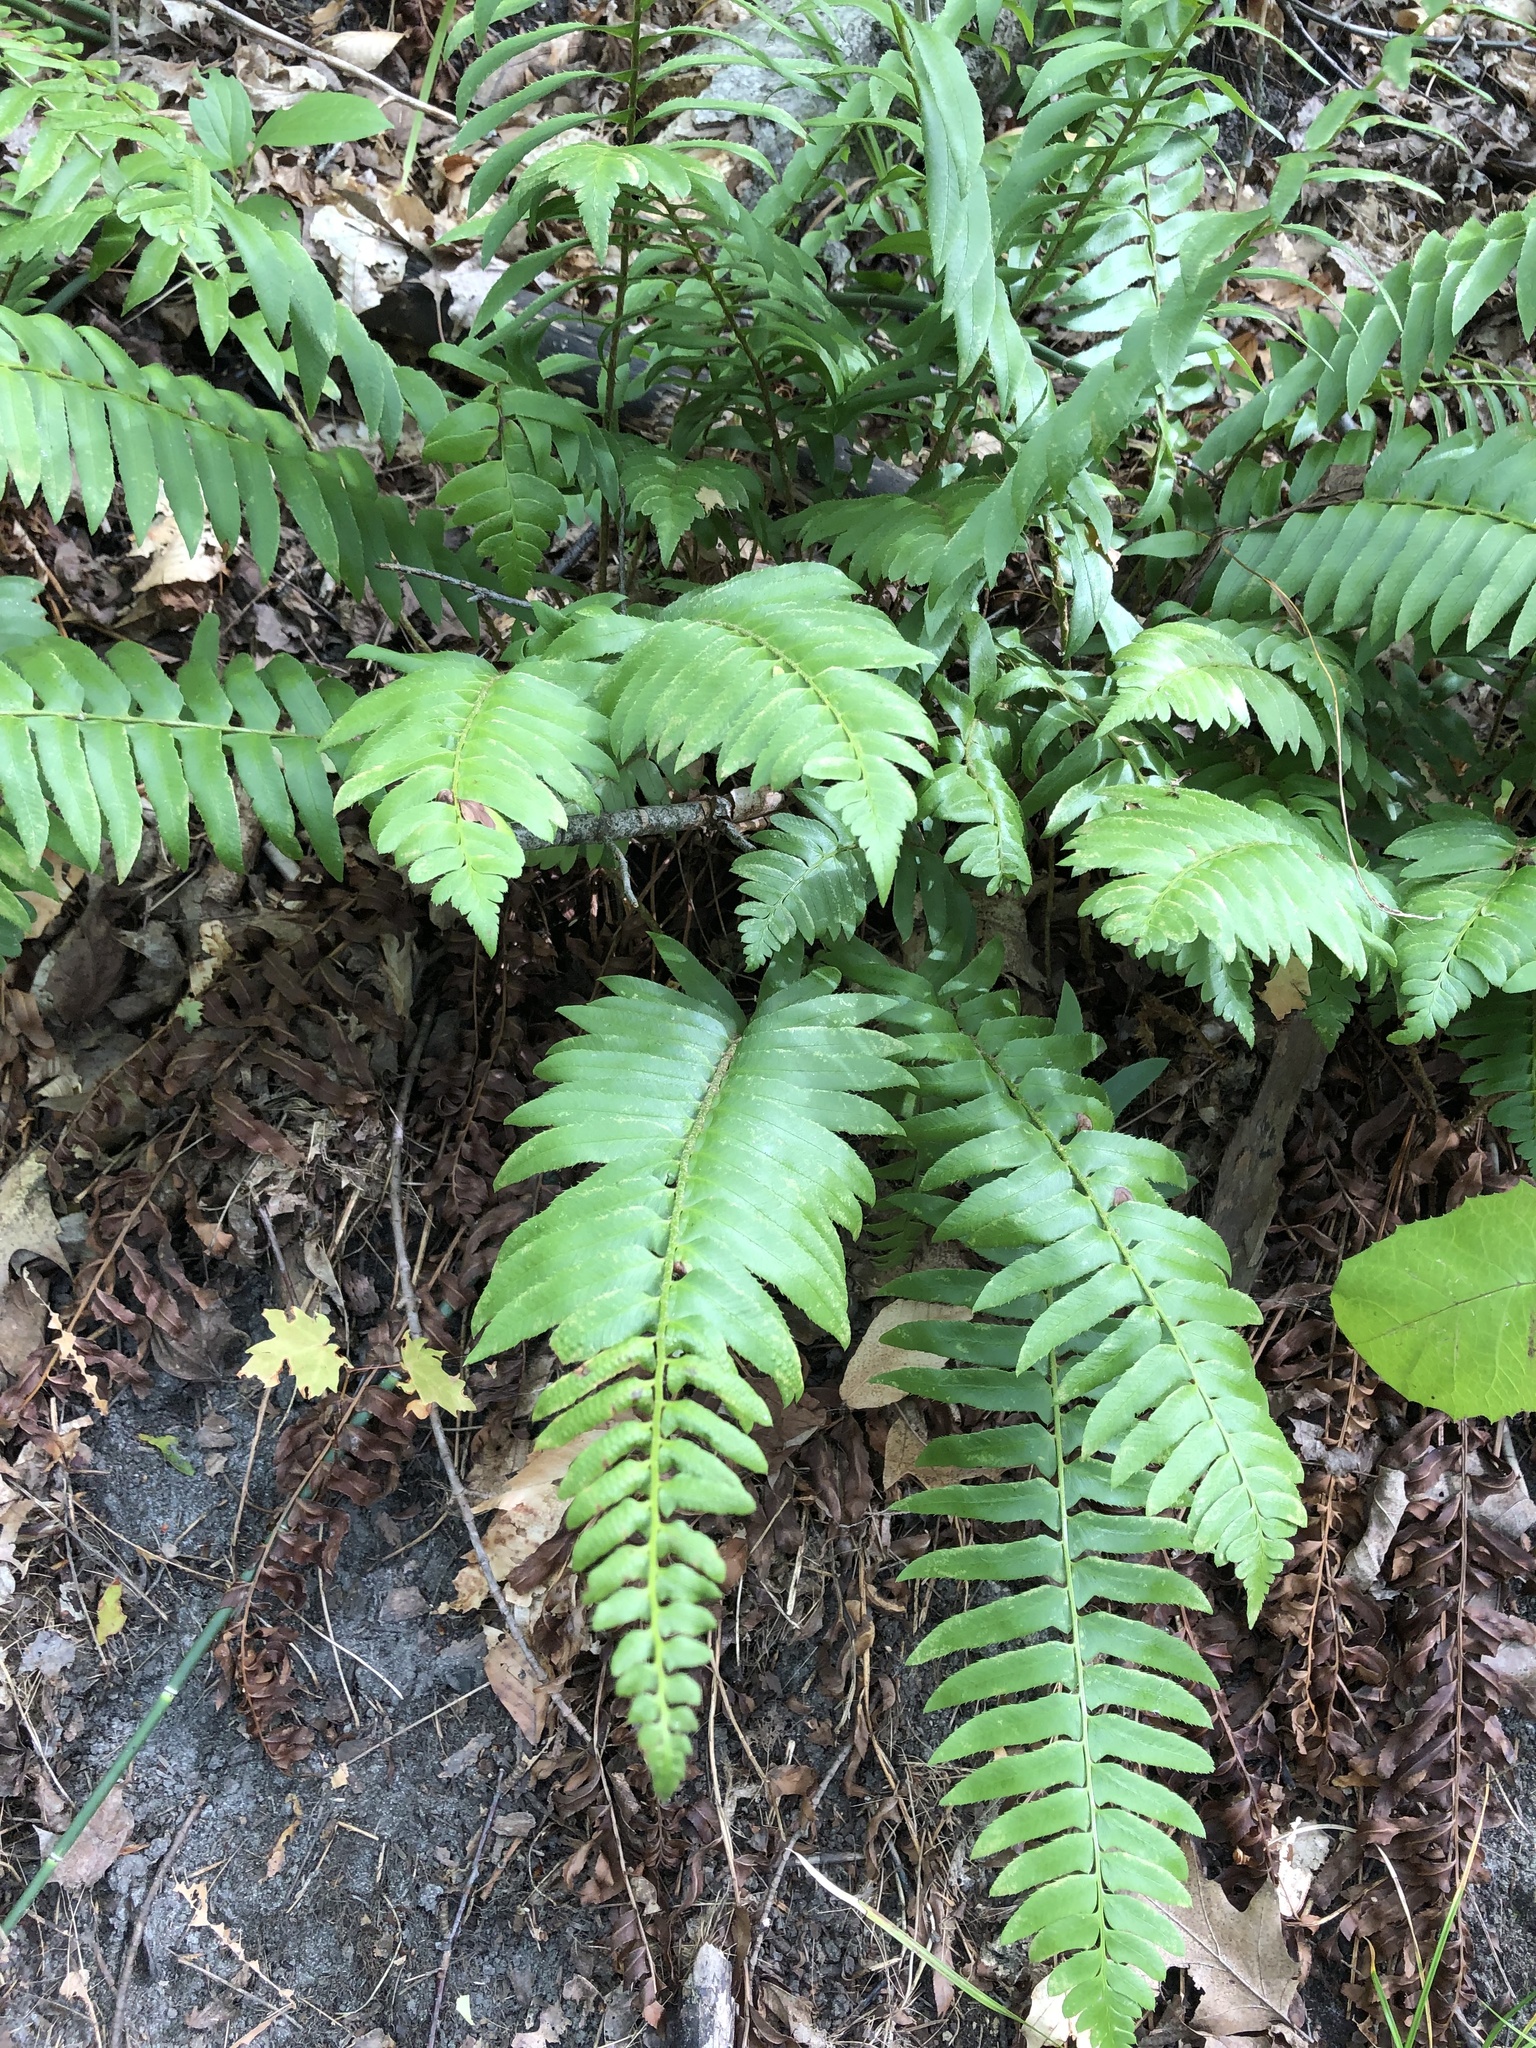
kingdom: Plantae
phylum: Tracheophyta
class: Polypodiopsida
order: Polypodiales
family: Dryopteridaceae
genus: Polystichum
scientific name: Polystichum acrostichoides
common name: Christmas fern
